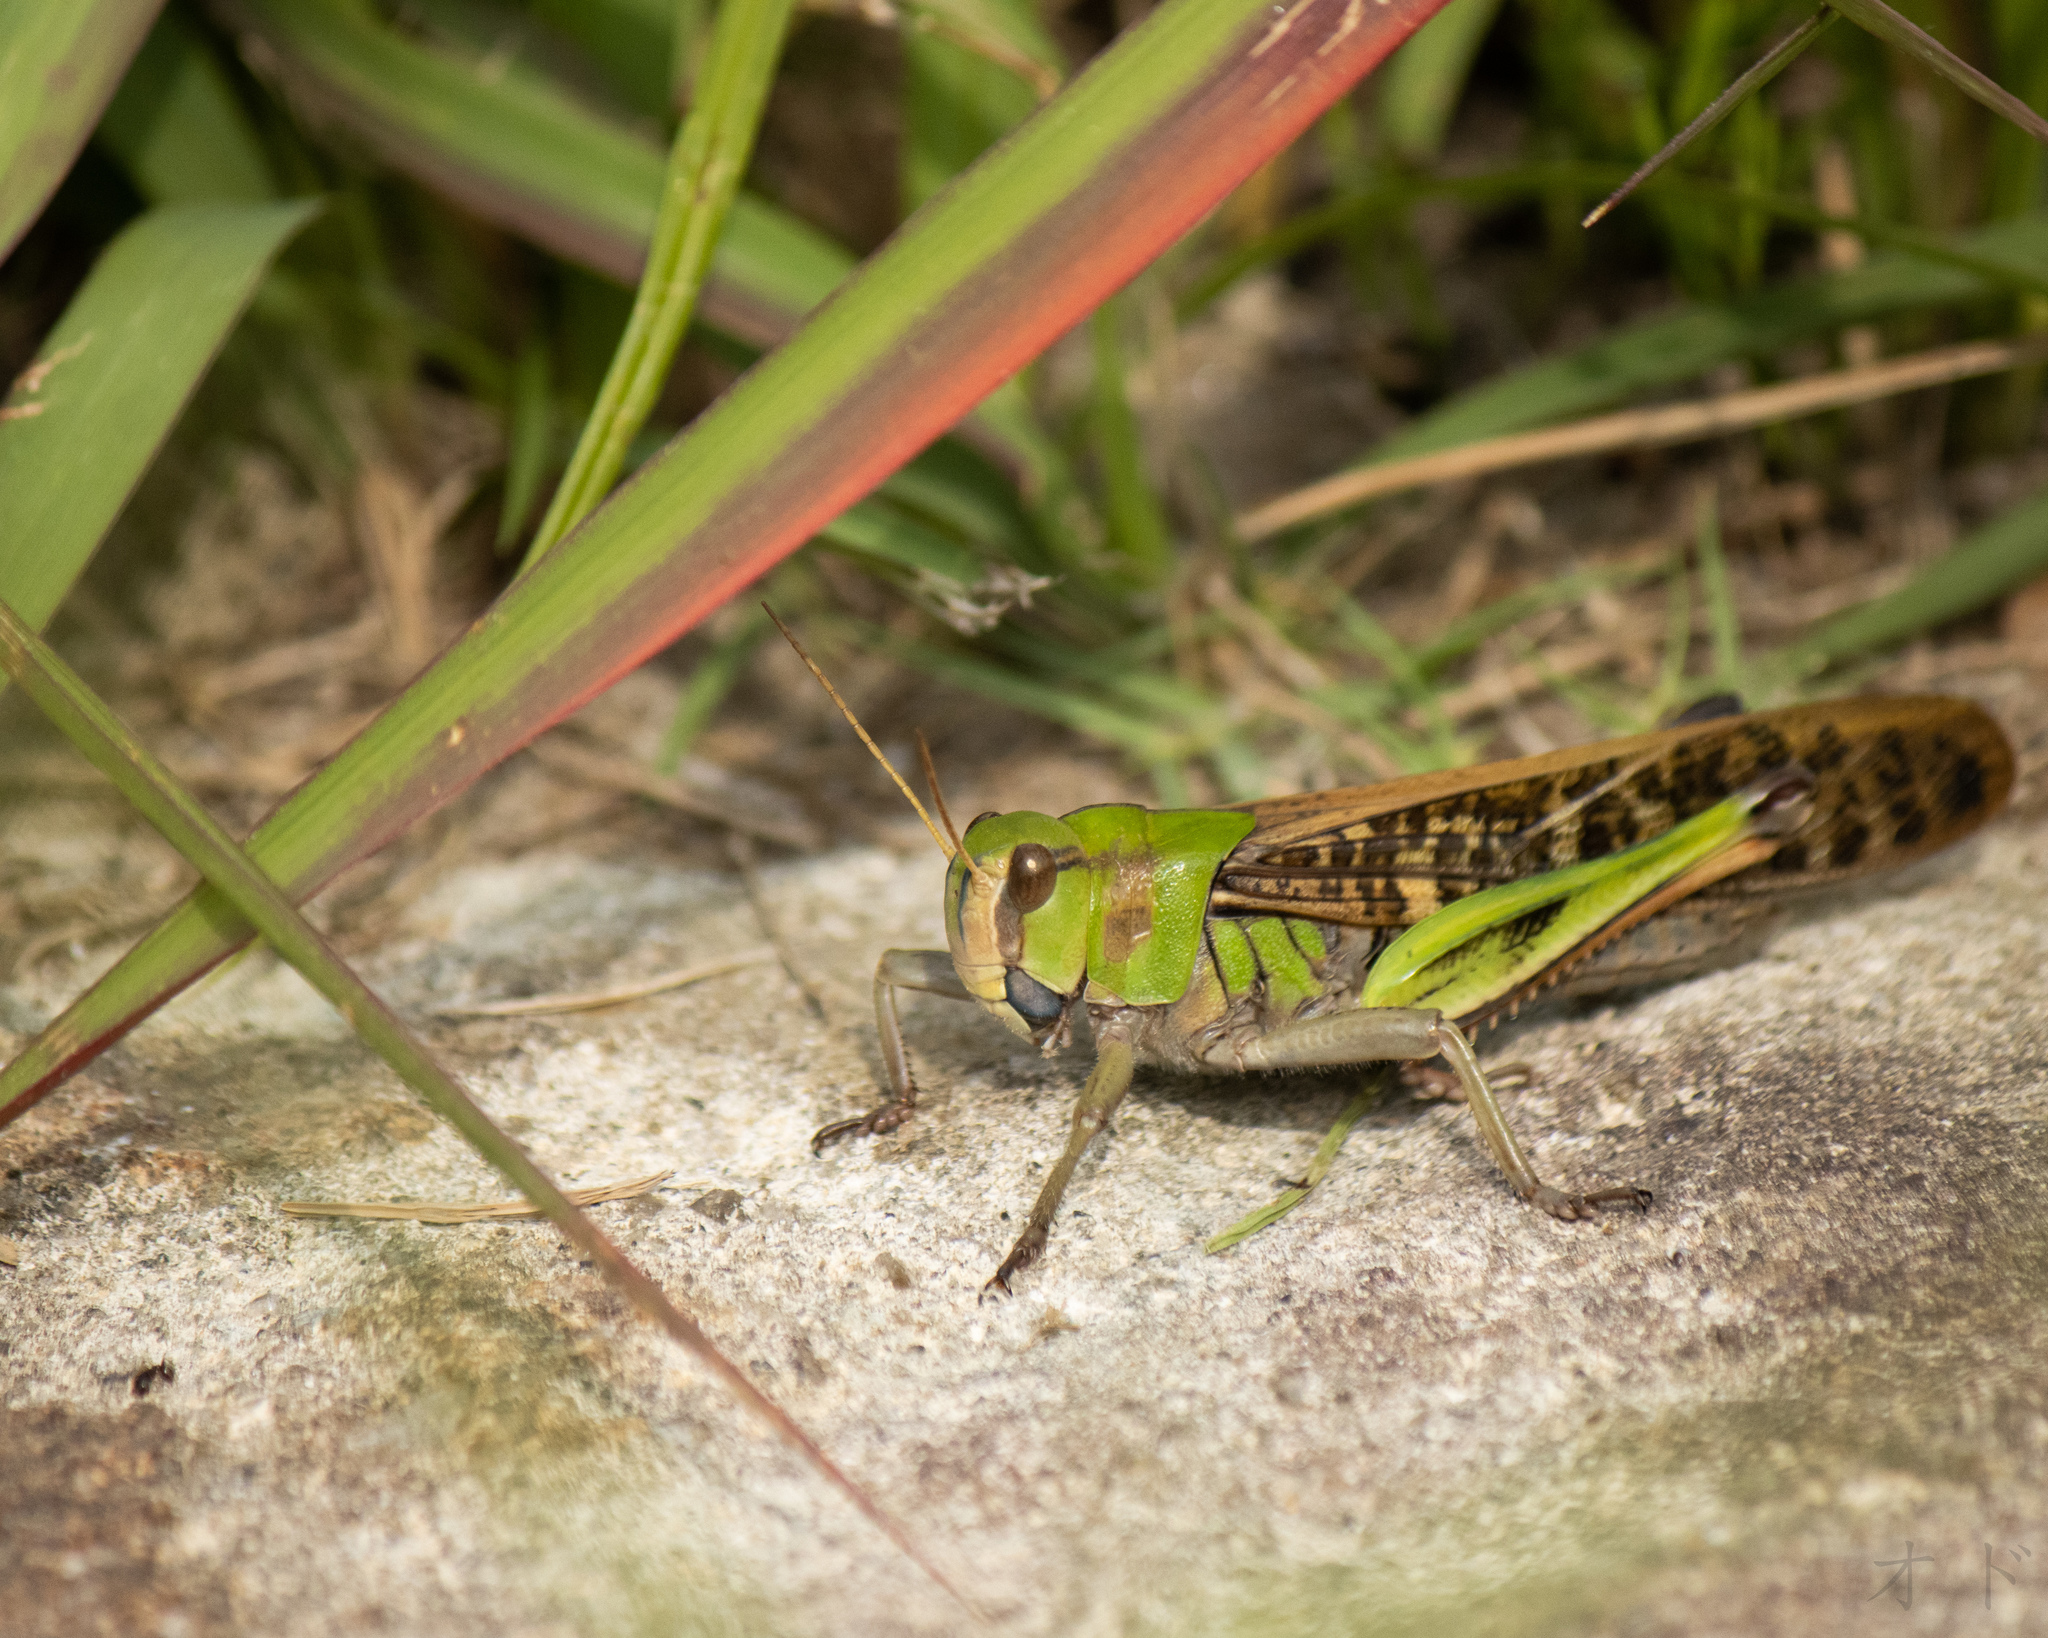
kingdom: Animalia
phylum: Arthropoda
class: Insecta
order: Orthoptera
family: Acrididae
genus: Locusta
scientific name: Locusta migratoria
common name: Migratory locust
